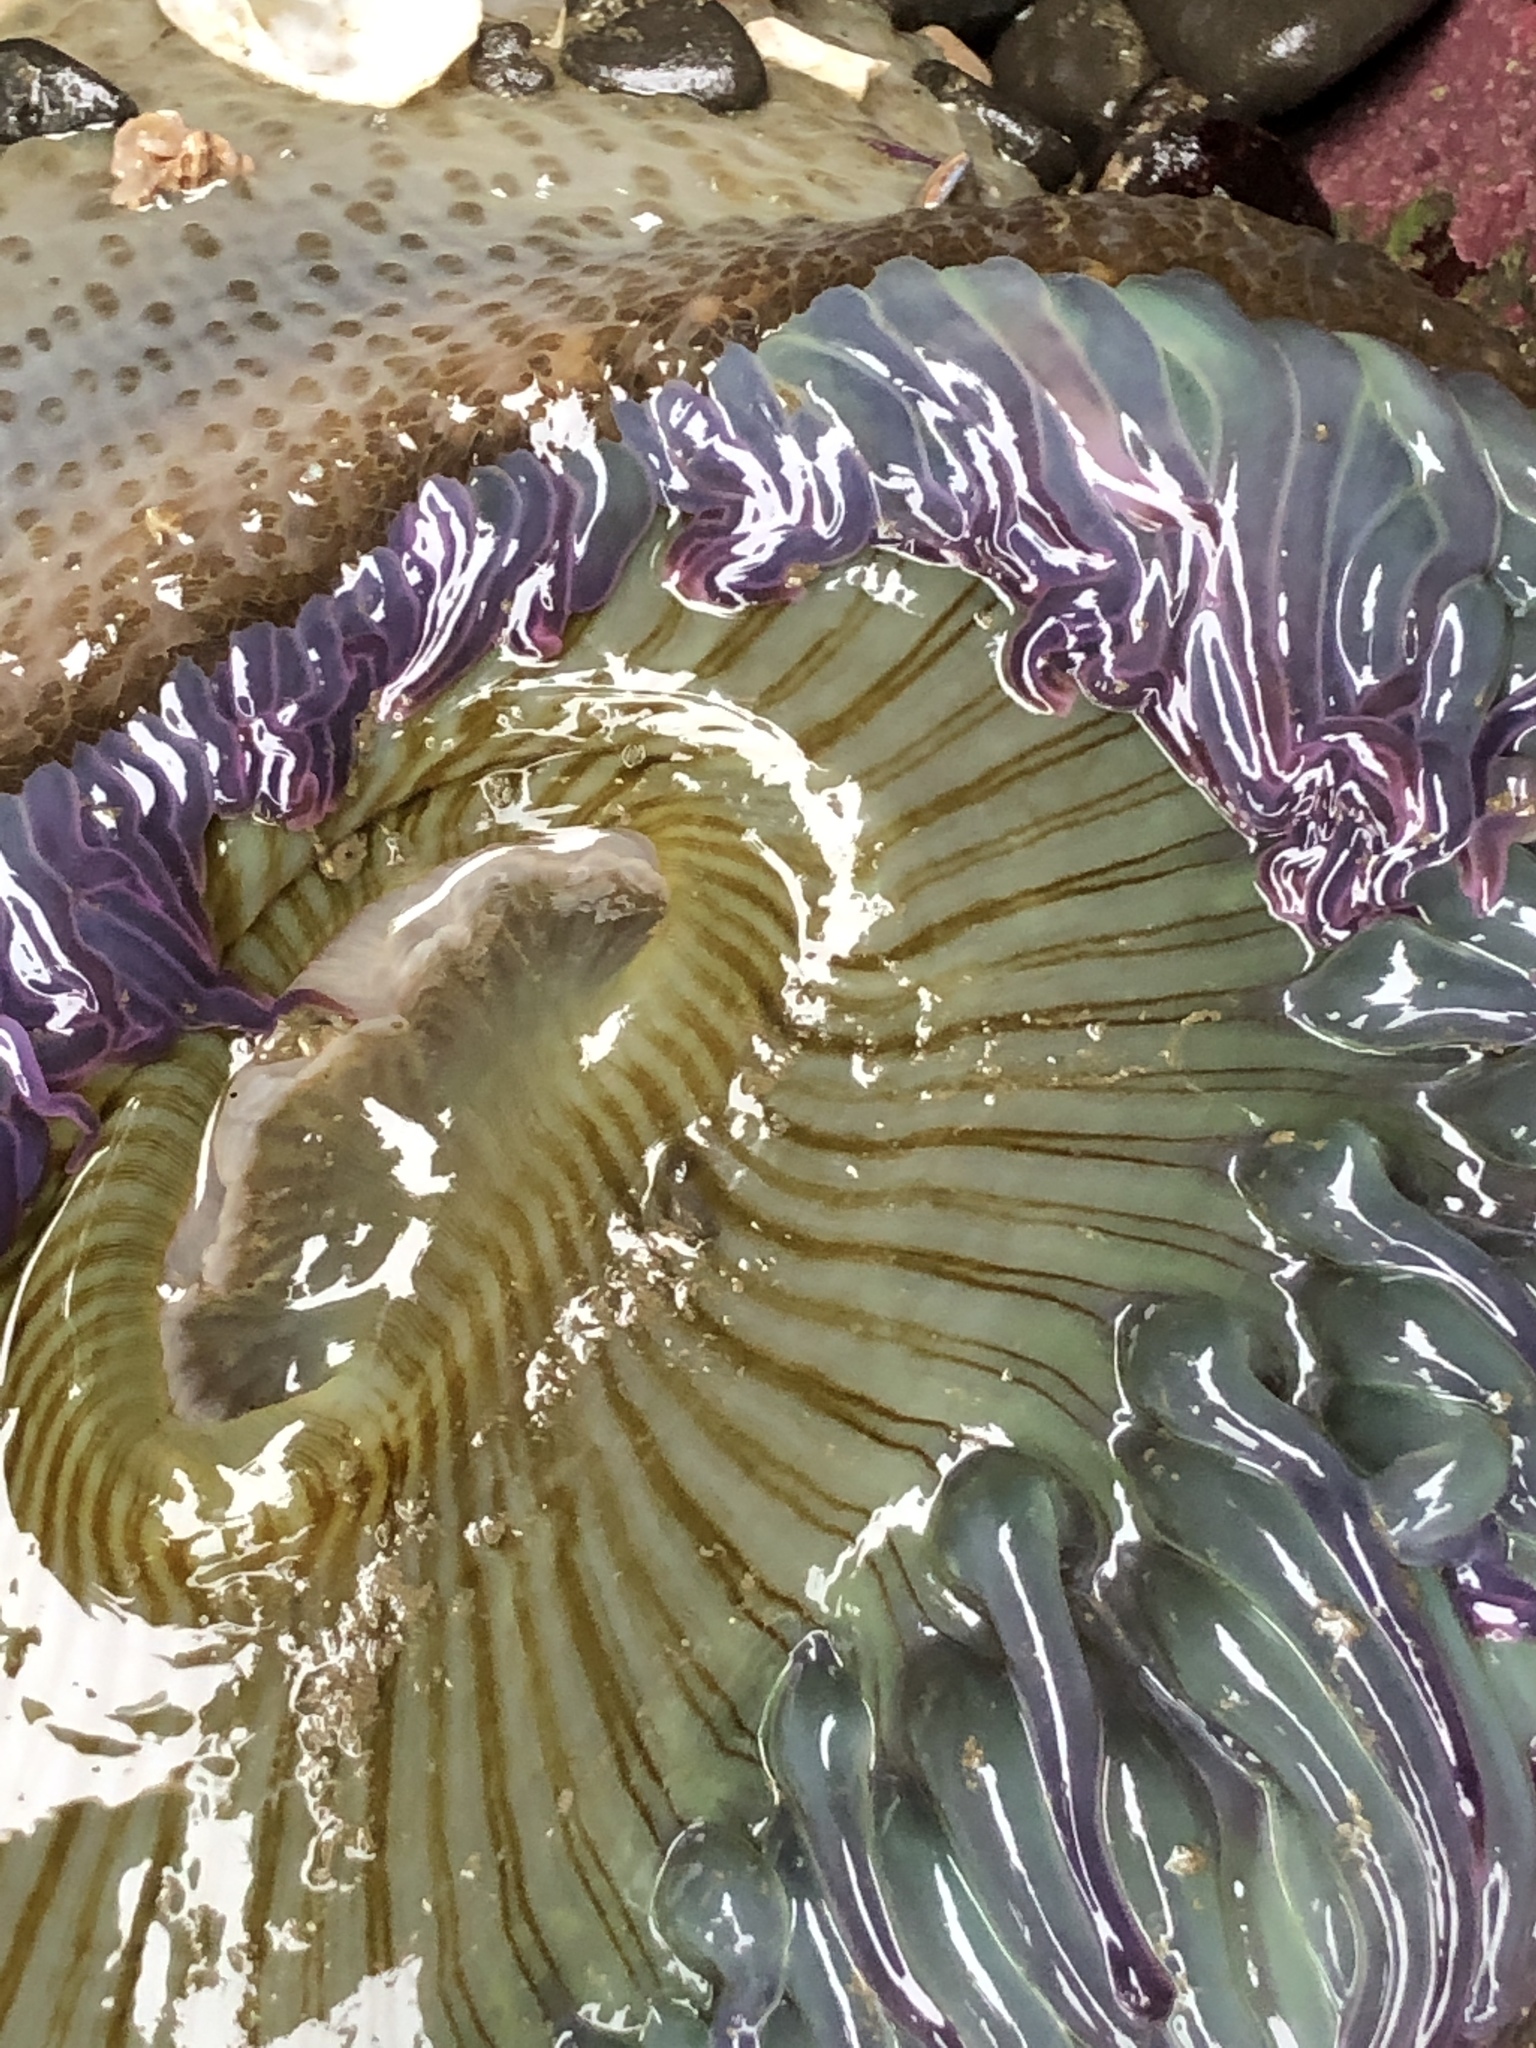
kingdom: Animalia
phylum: Cnidaria
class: Anthozoa
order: Actiniaria
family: Actiniidae
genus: Anthopleura
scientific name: Anthopleura sola
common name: Sun anemone
